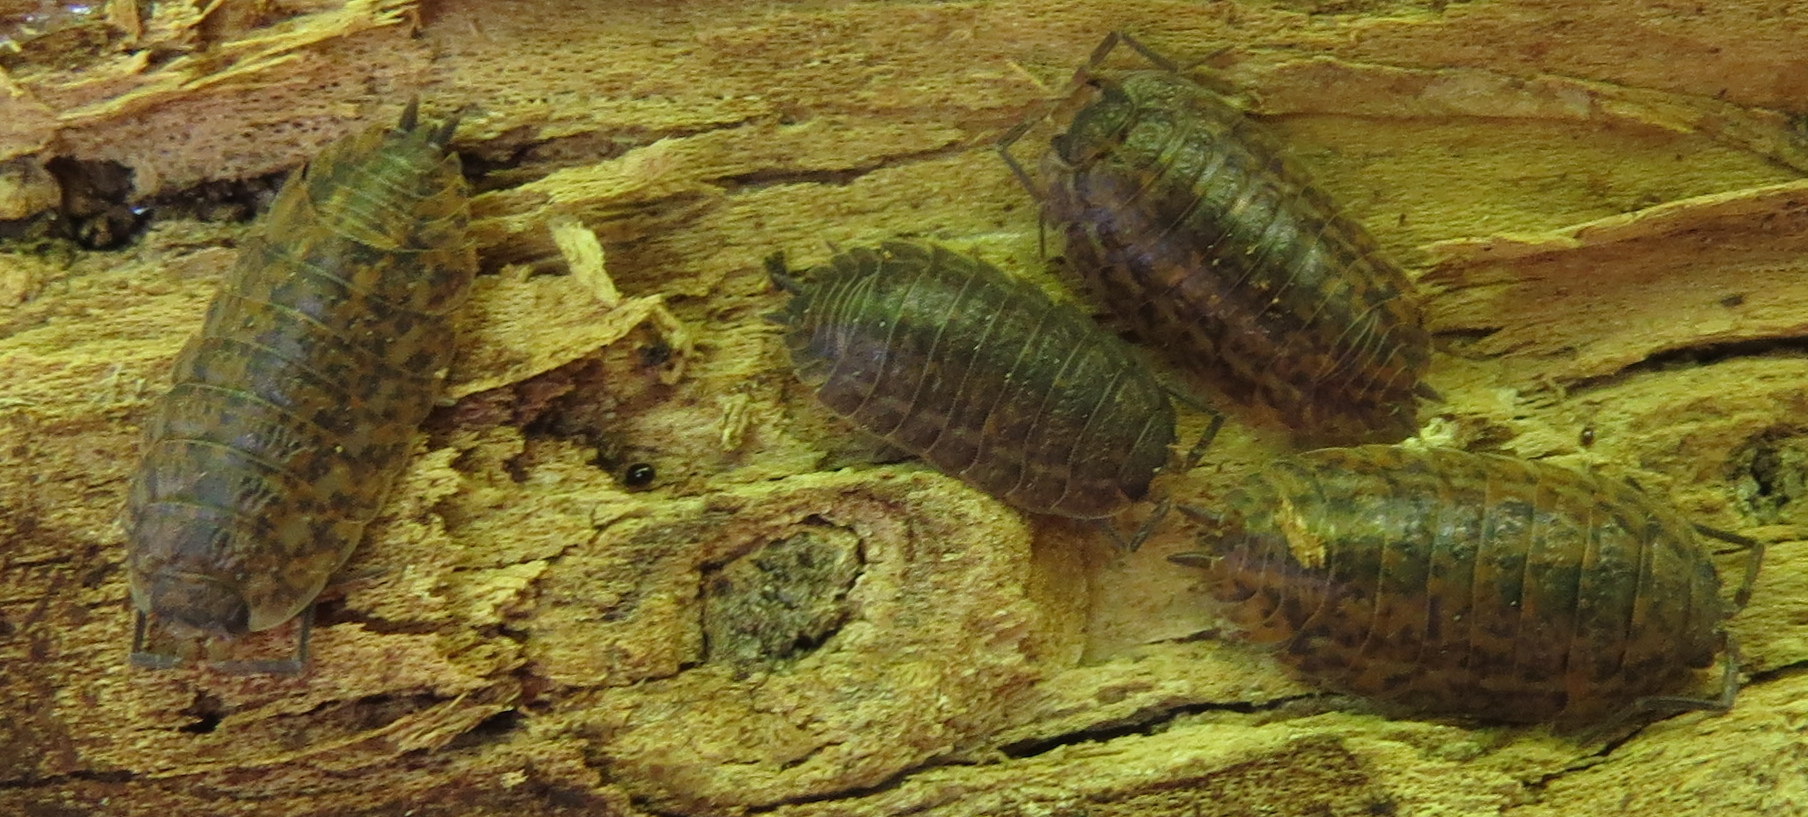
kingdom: Animalia
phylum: Arthropoda
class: Malacostraca
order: Isopoda
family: Trachelipodidae
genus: Trachelipus
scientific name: Trachelipus rathkii
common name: Isopod
